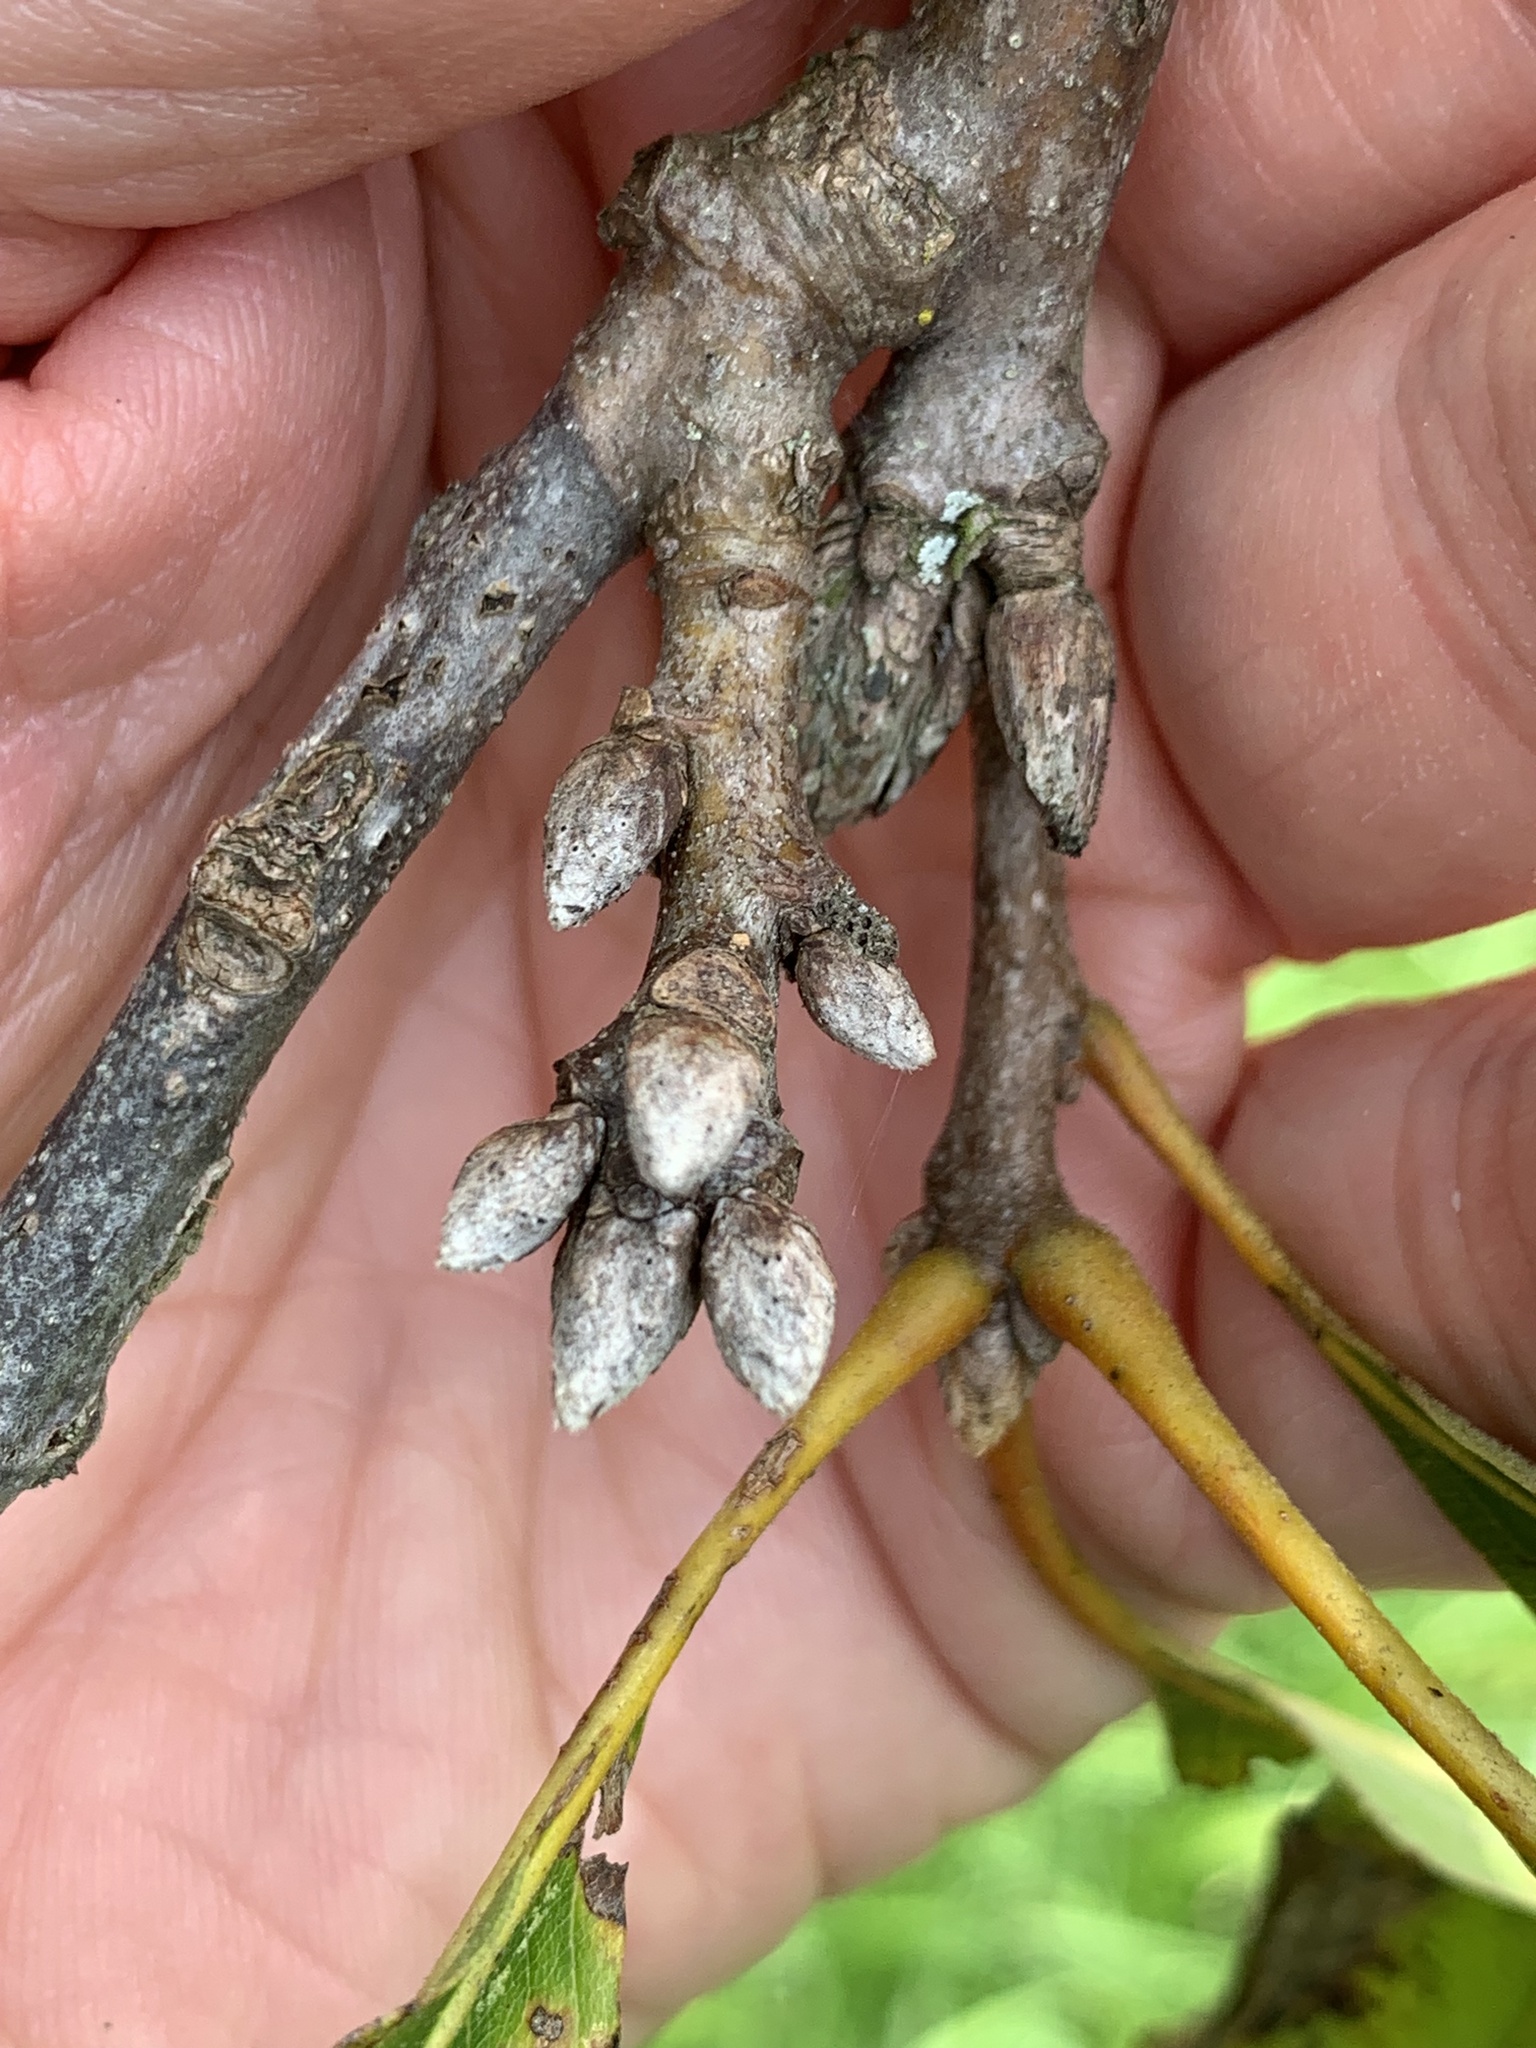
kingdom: Plantae
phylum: Tracheophyta
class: Magnoliopsida
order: Fagales
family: Fagaceae
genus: Quercus
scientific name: Quercus velutina
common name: Black oak
